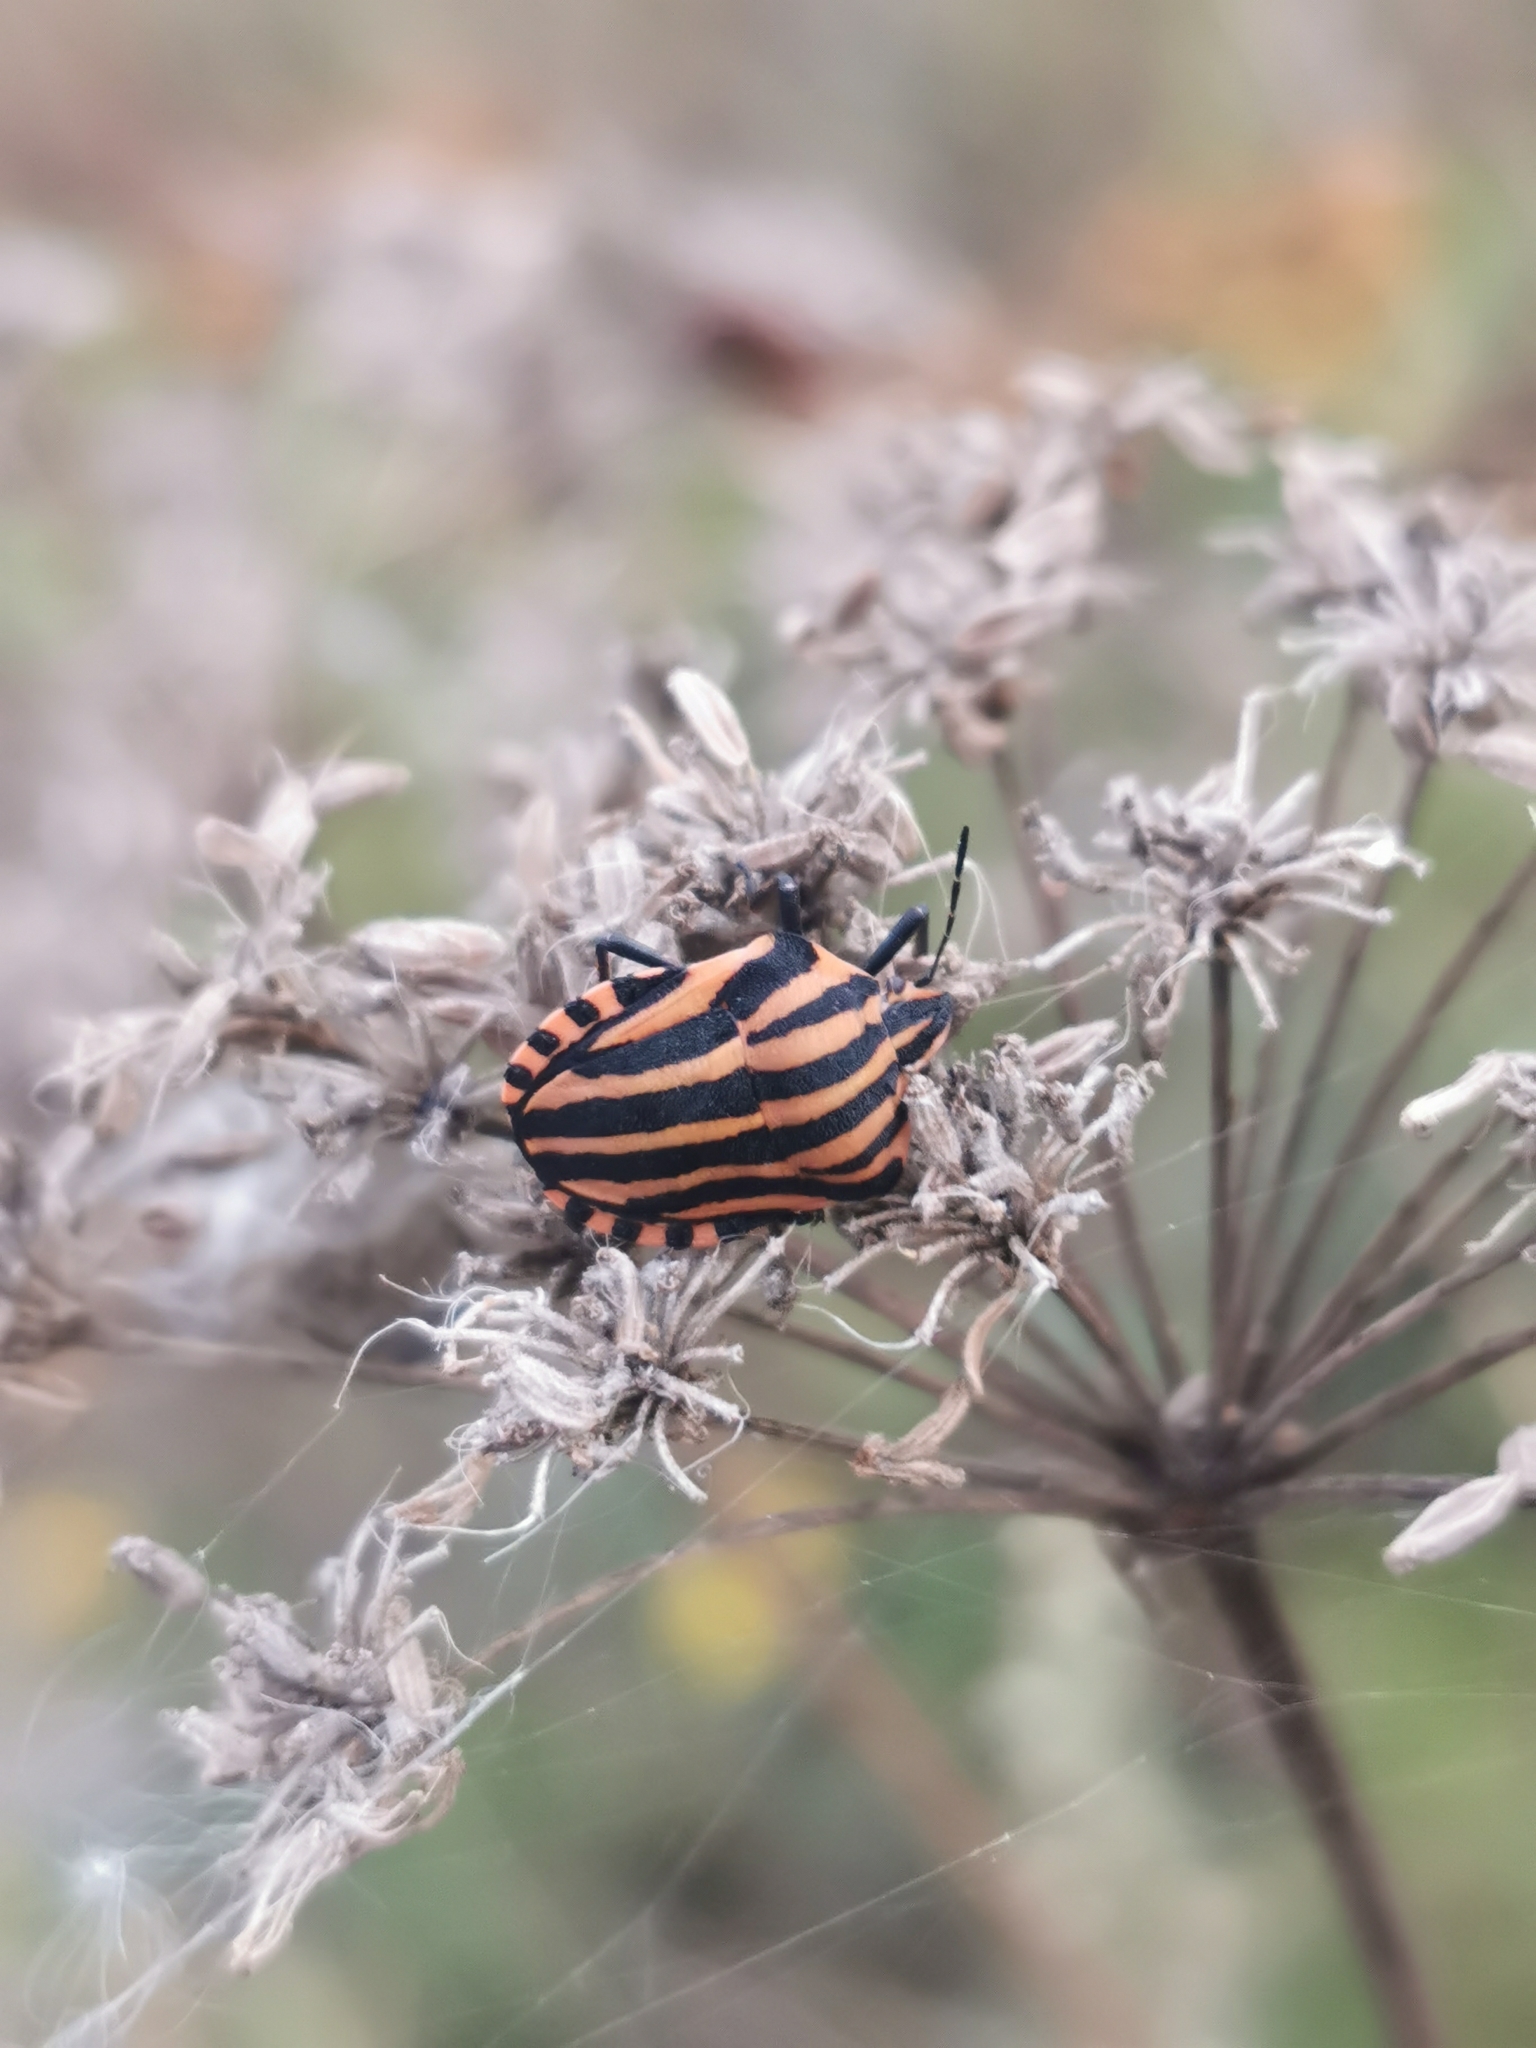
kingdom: Animalia
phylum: Arthropoda
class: Insecta
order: Hemiptera
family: Pentatomidae
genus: Graphosoma
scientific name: Graphosoma italicum
